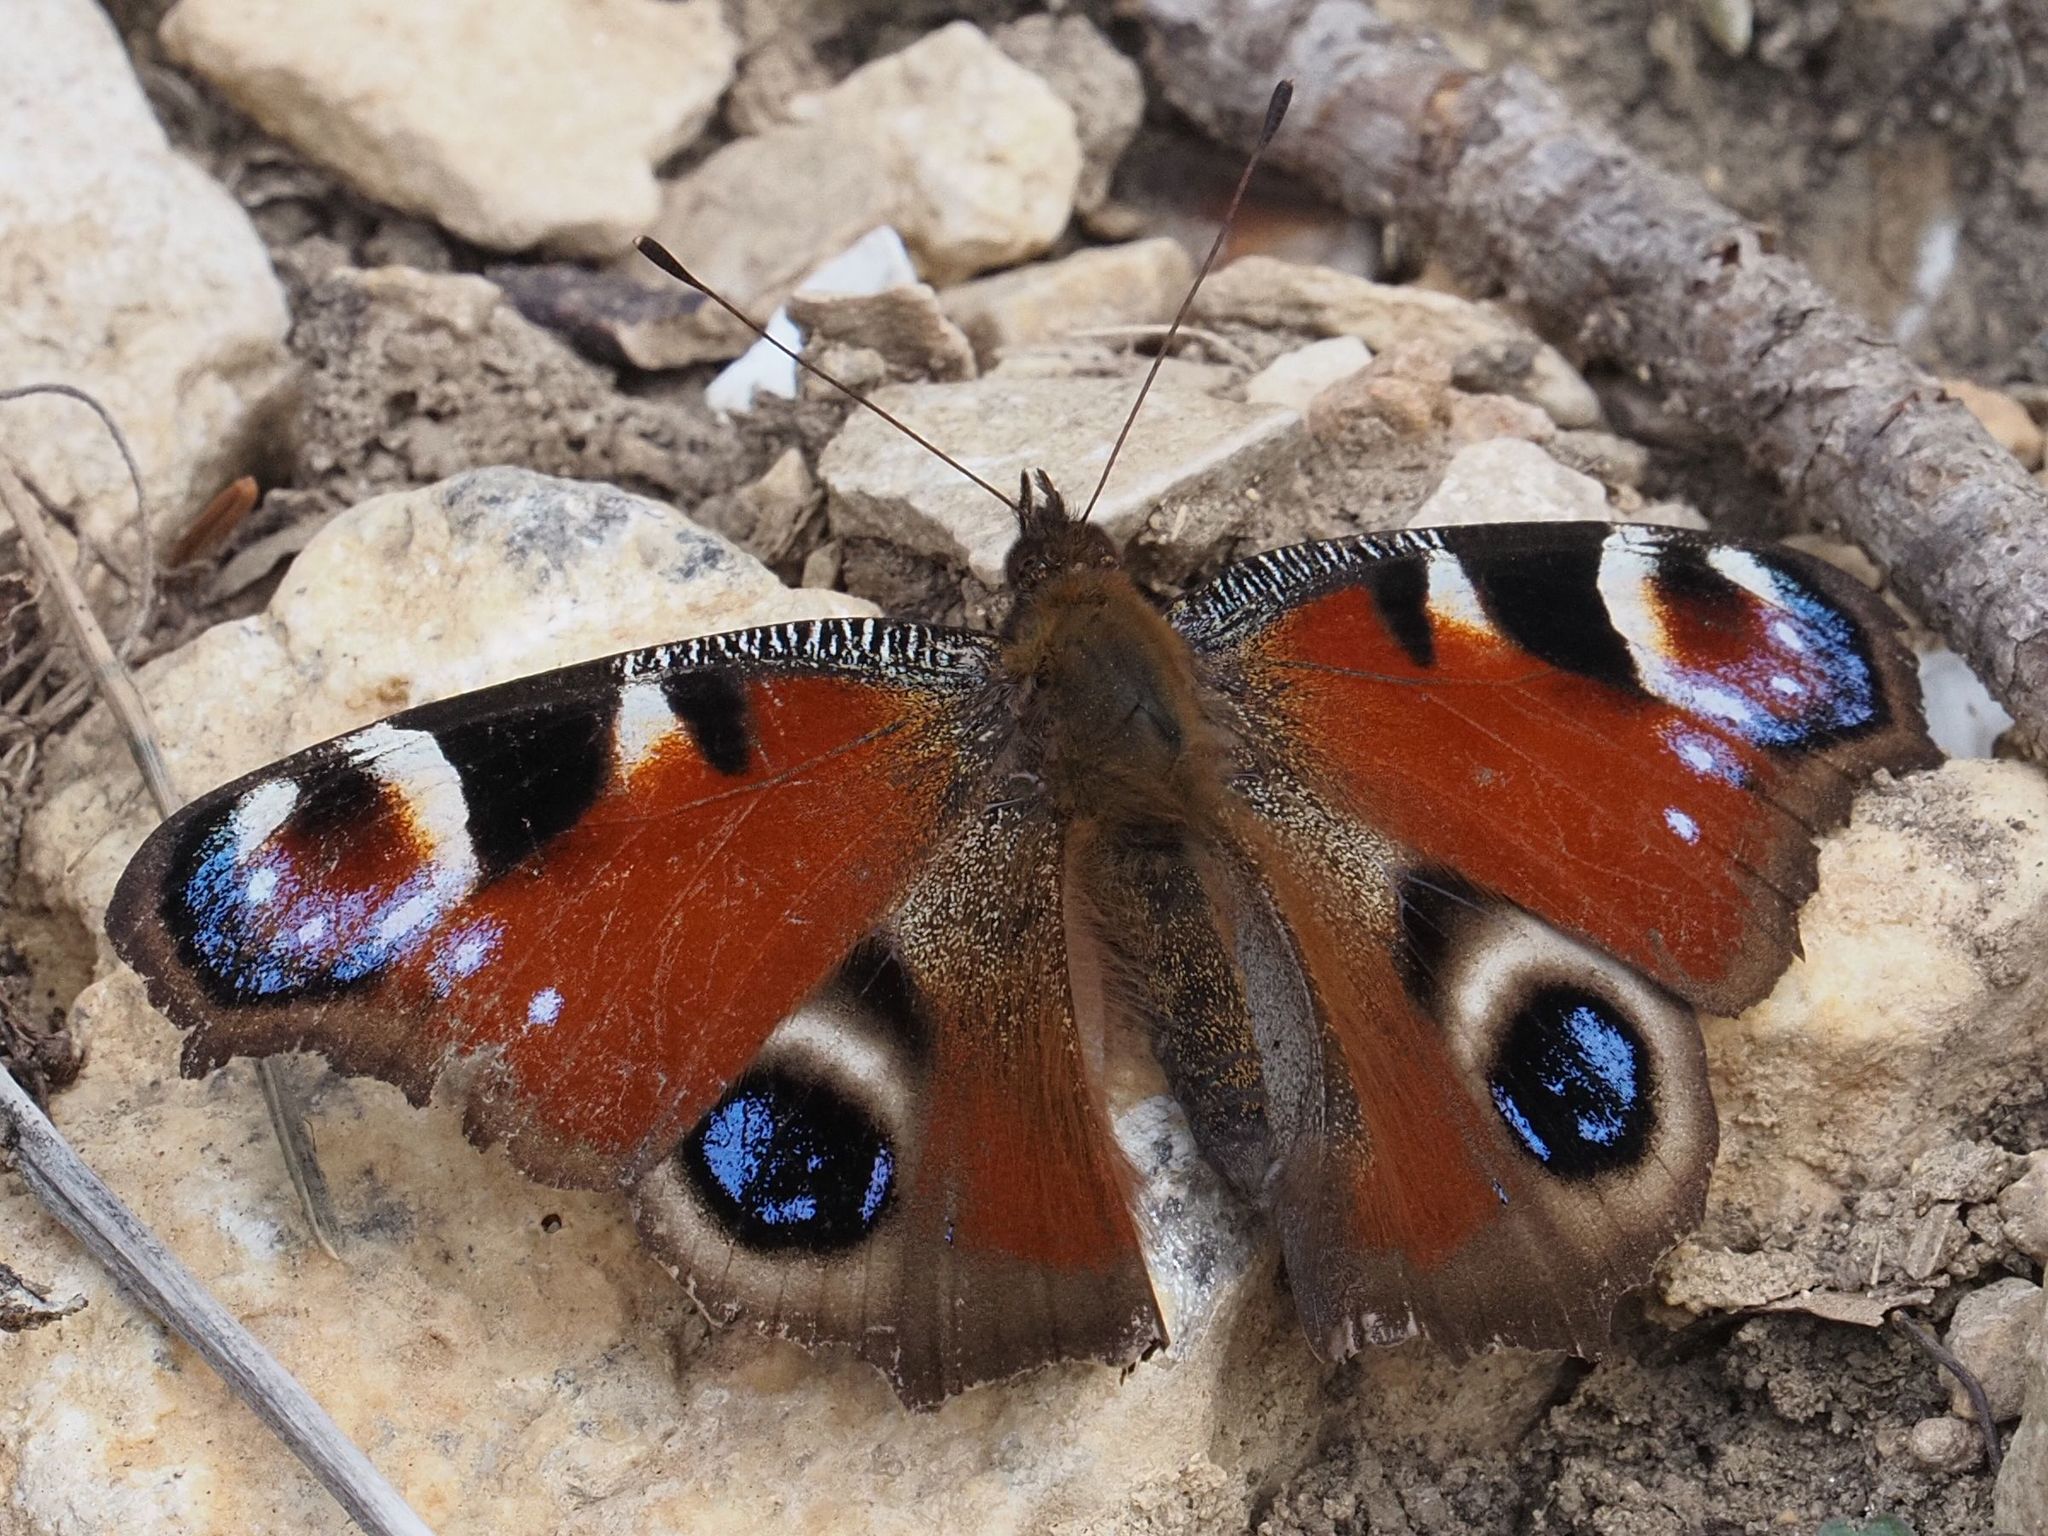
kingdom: Animalia
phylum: Arthropoda
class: Insecta
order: Lepidoptera
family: Nymphalidae
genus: Aglais
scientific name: Aglais io
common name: Peacock
